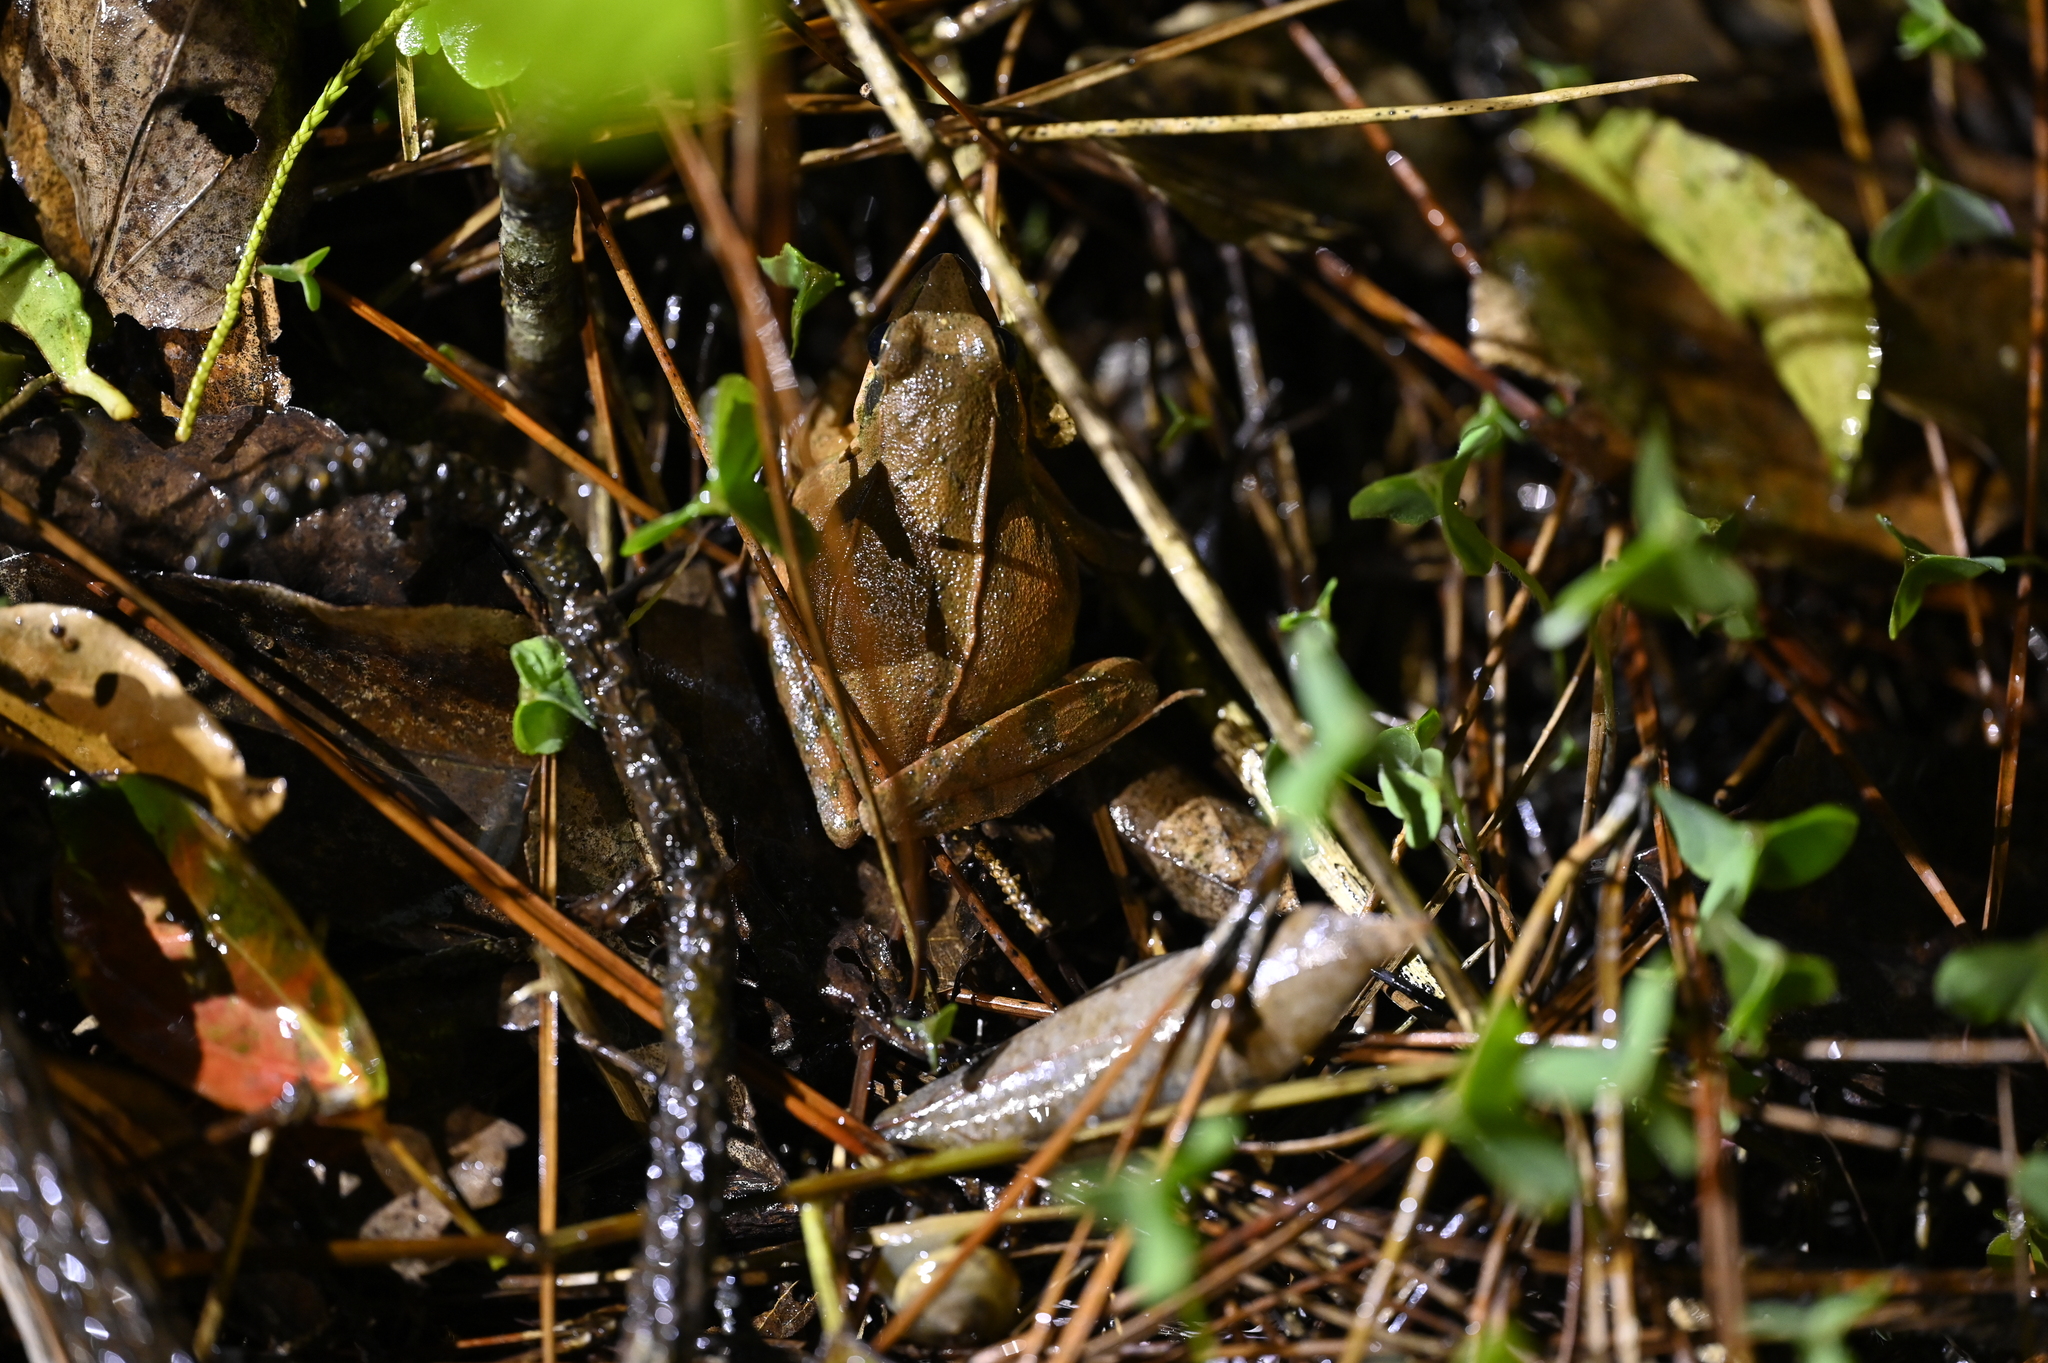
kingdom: Animalia
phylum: Chordata
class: Amphibia
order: Anura
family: Ranidae
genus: Rana
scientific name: Rana longicrus
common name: Long-legged brown frog
